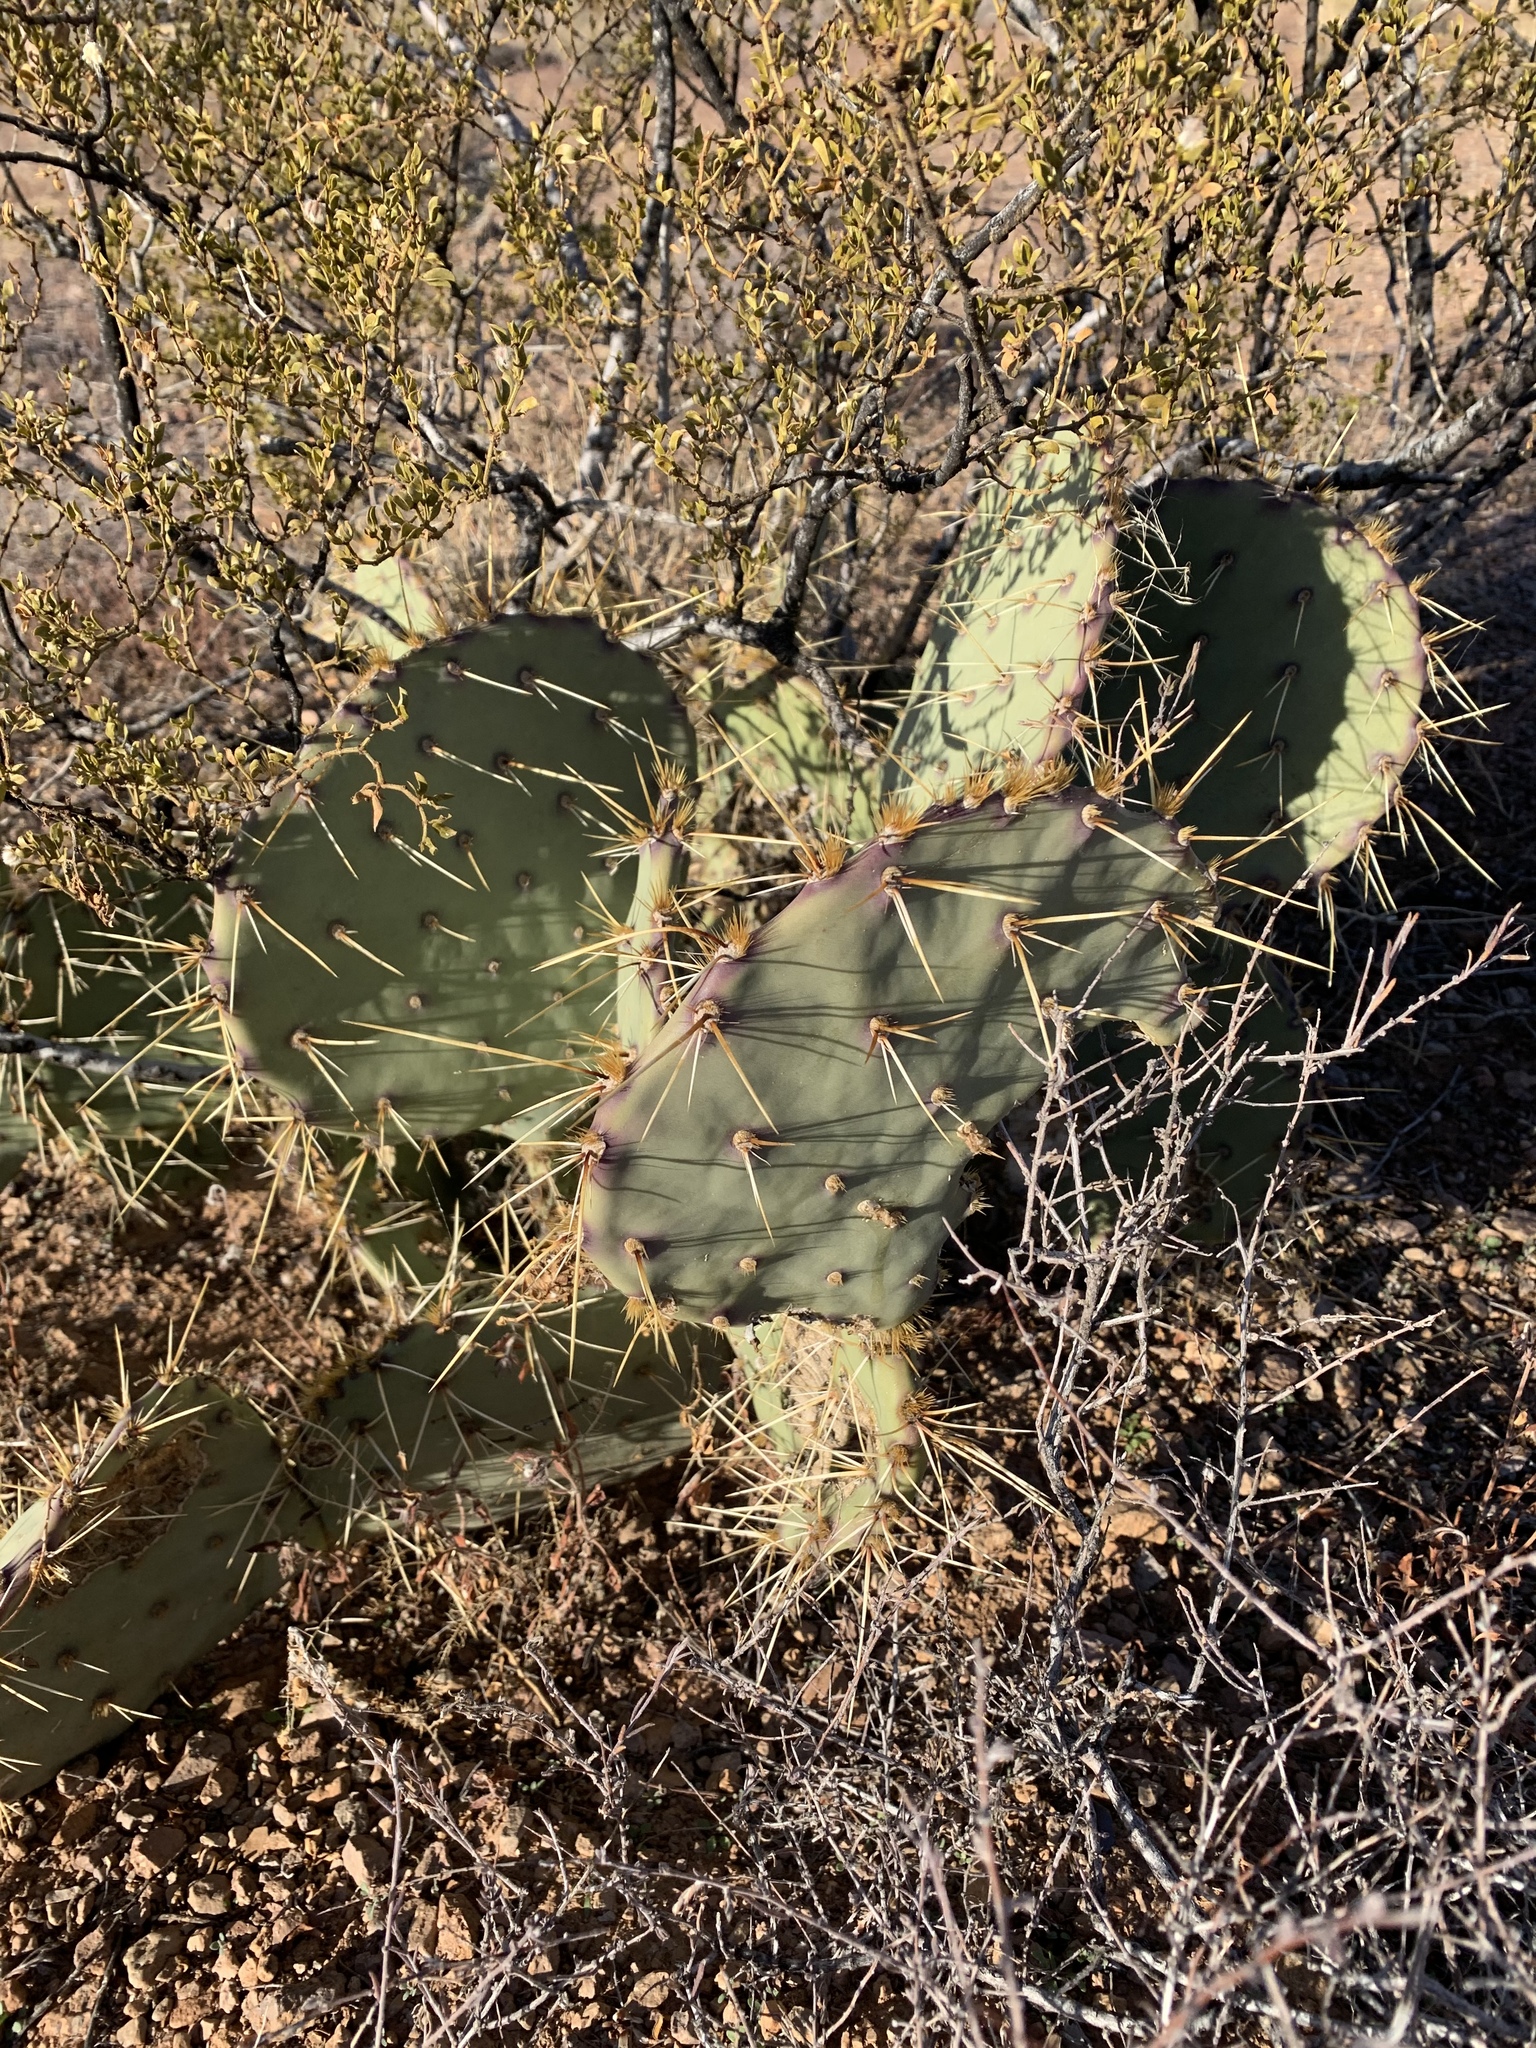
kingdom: Plantae
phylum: Tracheophyta
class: Magnoliopsida
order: Caryophyllales
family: Cactaceae
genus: Opuntia
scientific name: Opuntia phaeacantha
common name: New mexico prickly-pear
